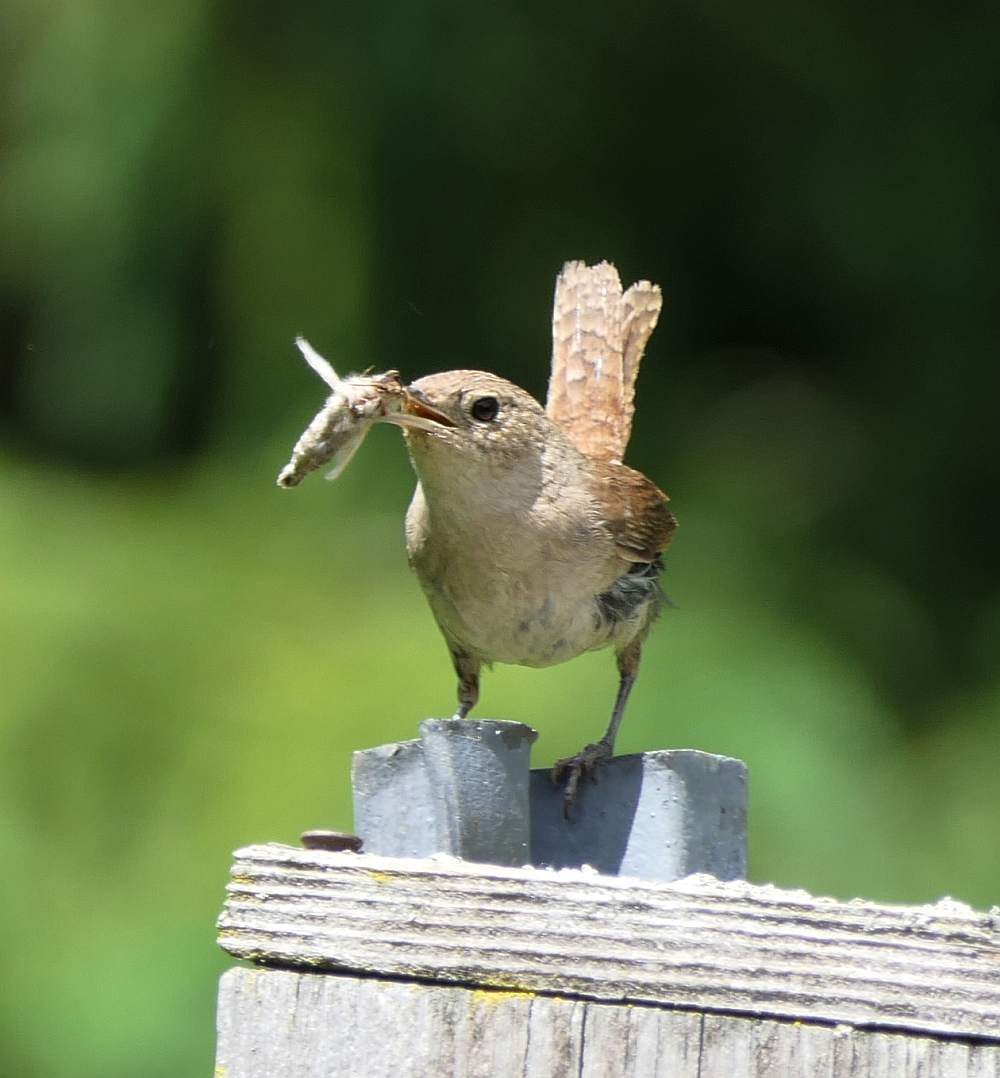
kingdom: Animalia
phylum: Chordata
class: Aves
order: Passeriformes
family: Troglodytidae
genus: Troglodytes
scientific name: Troglodytes aedon
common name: House wren
